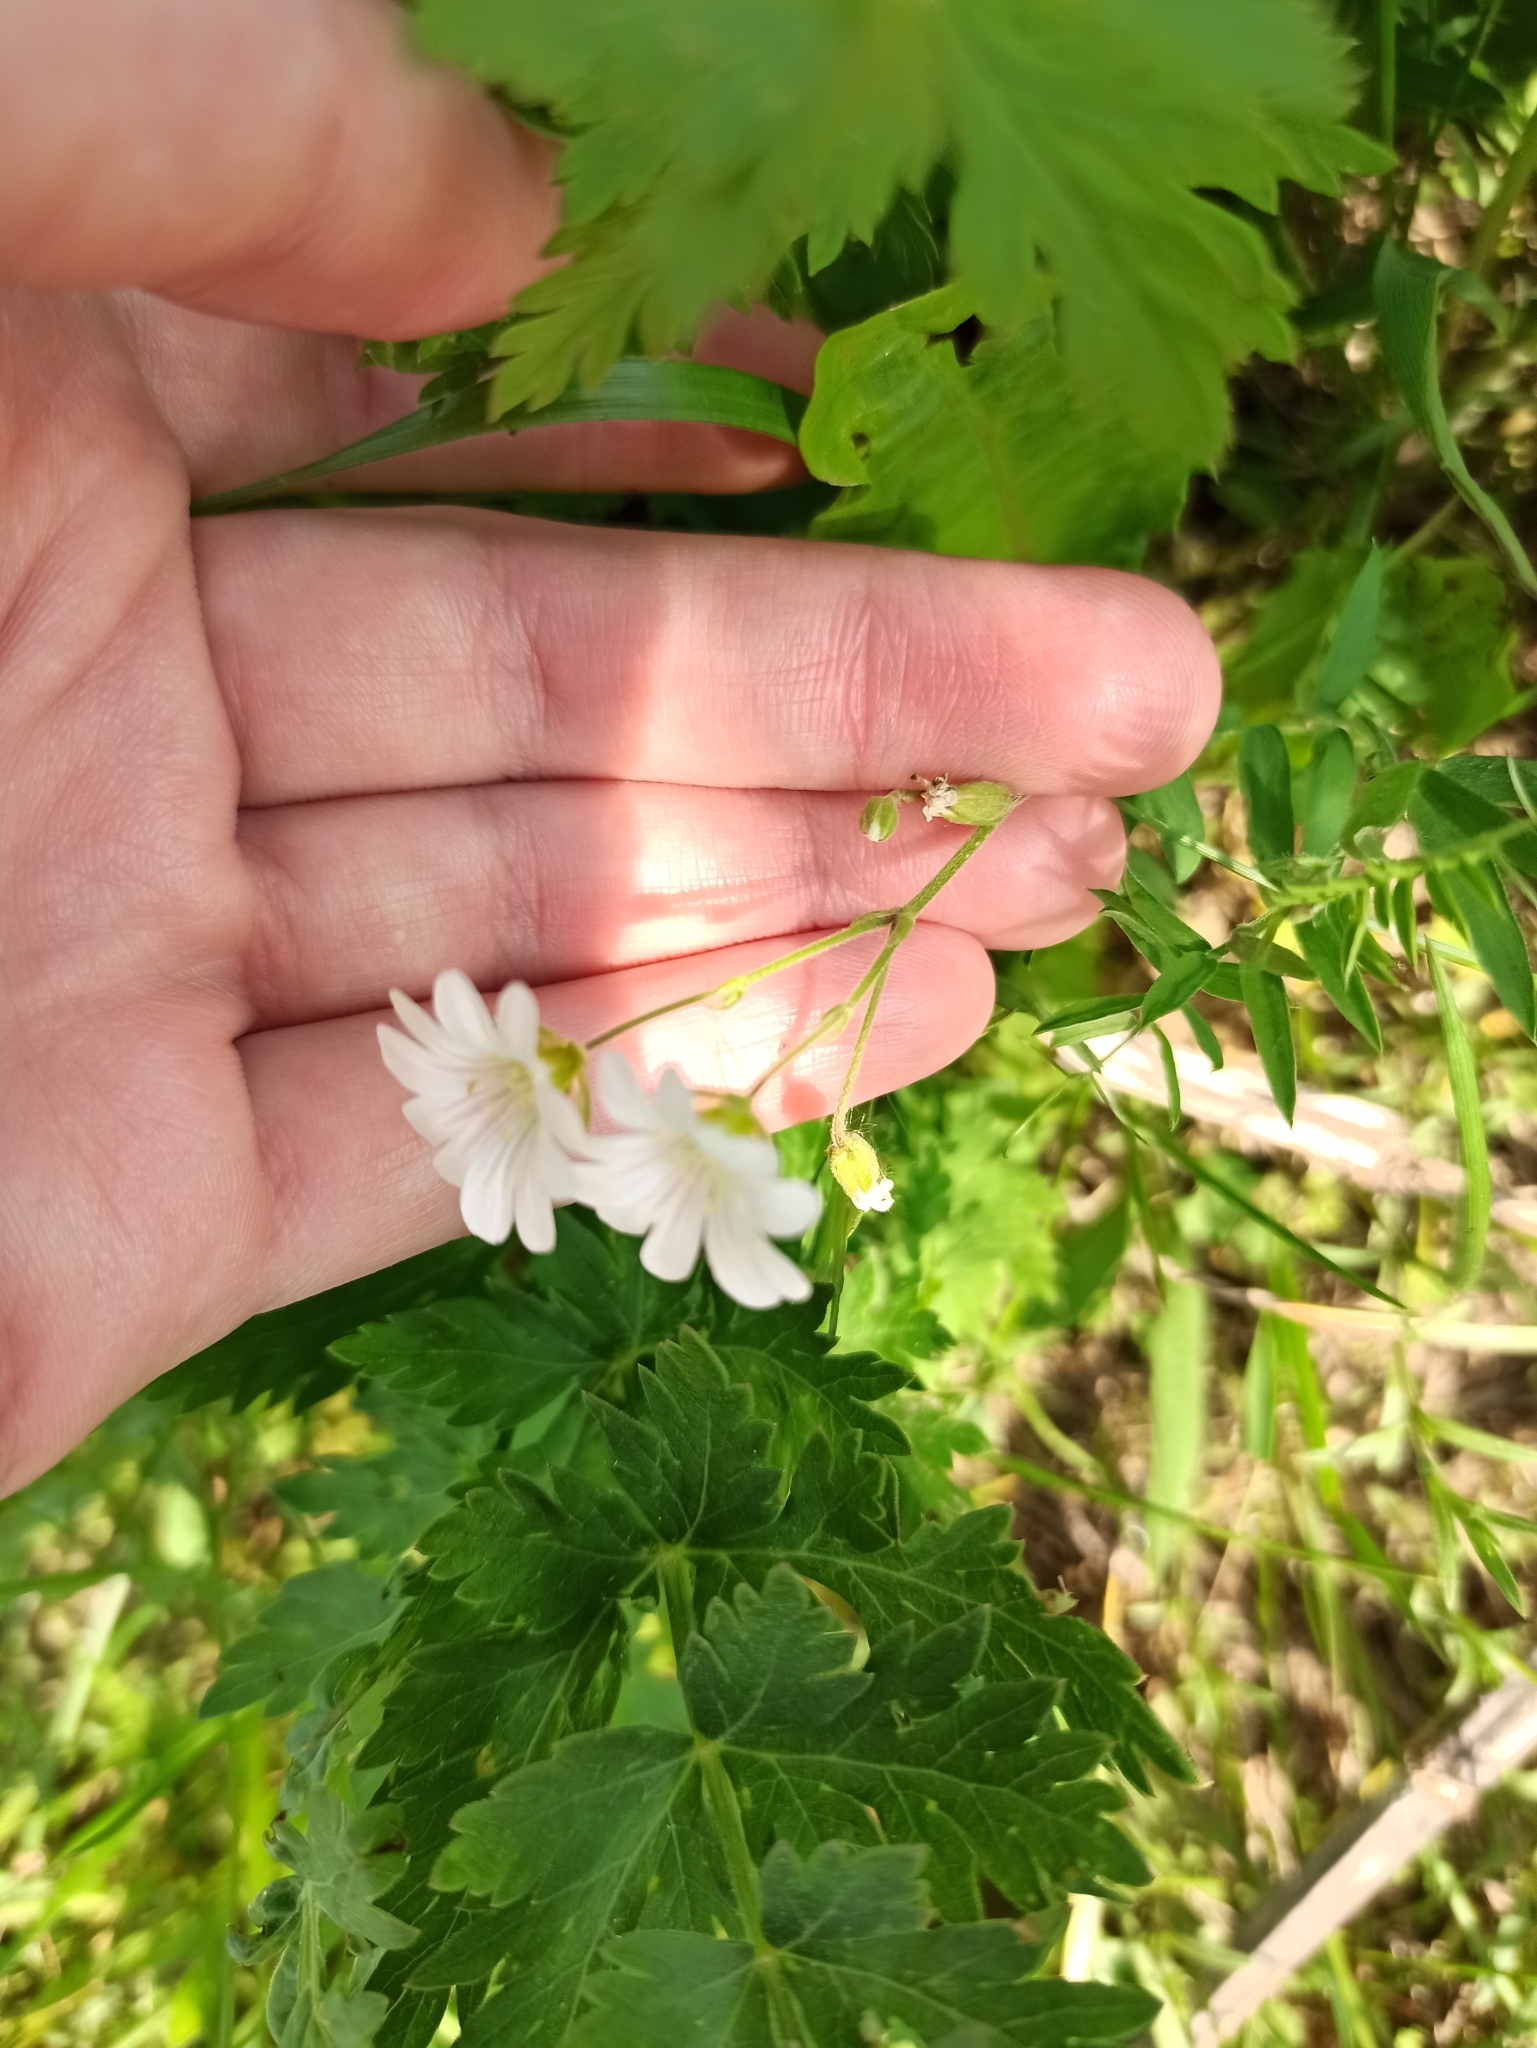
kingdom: Plantae
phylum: Tracheophyta
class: Magnoliopsida
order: Caryophyllales
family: Caryophyllaceae
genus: Cerastium
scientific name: Cerastium arvense
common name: Field mouse-ear
